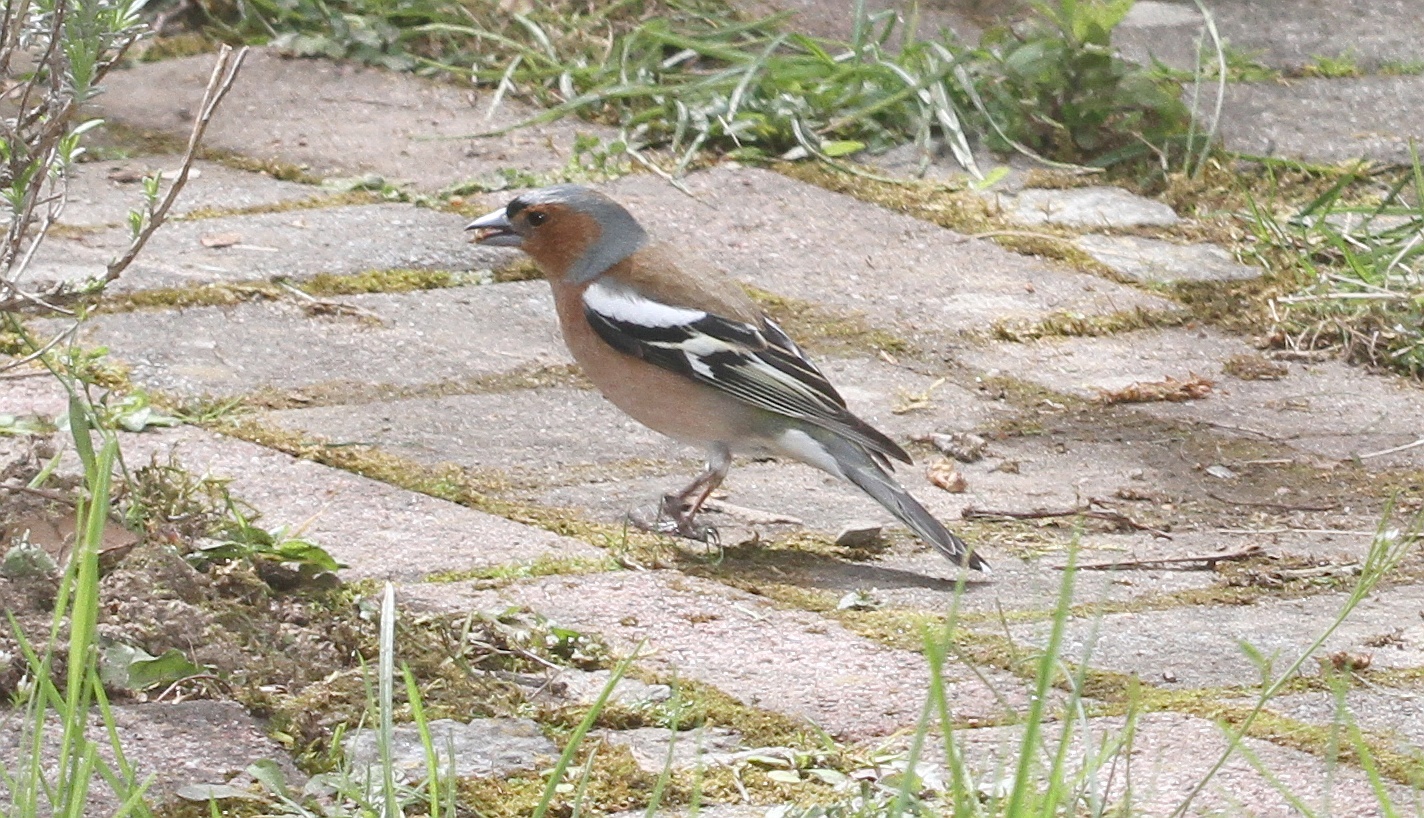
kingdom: Animalia
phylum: Chordata
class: Aves
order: Passeriformes
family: Fringillidae
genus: Fringilla
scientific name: Fringilla coelebs
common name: Common chaffinch
